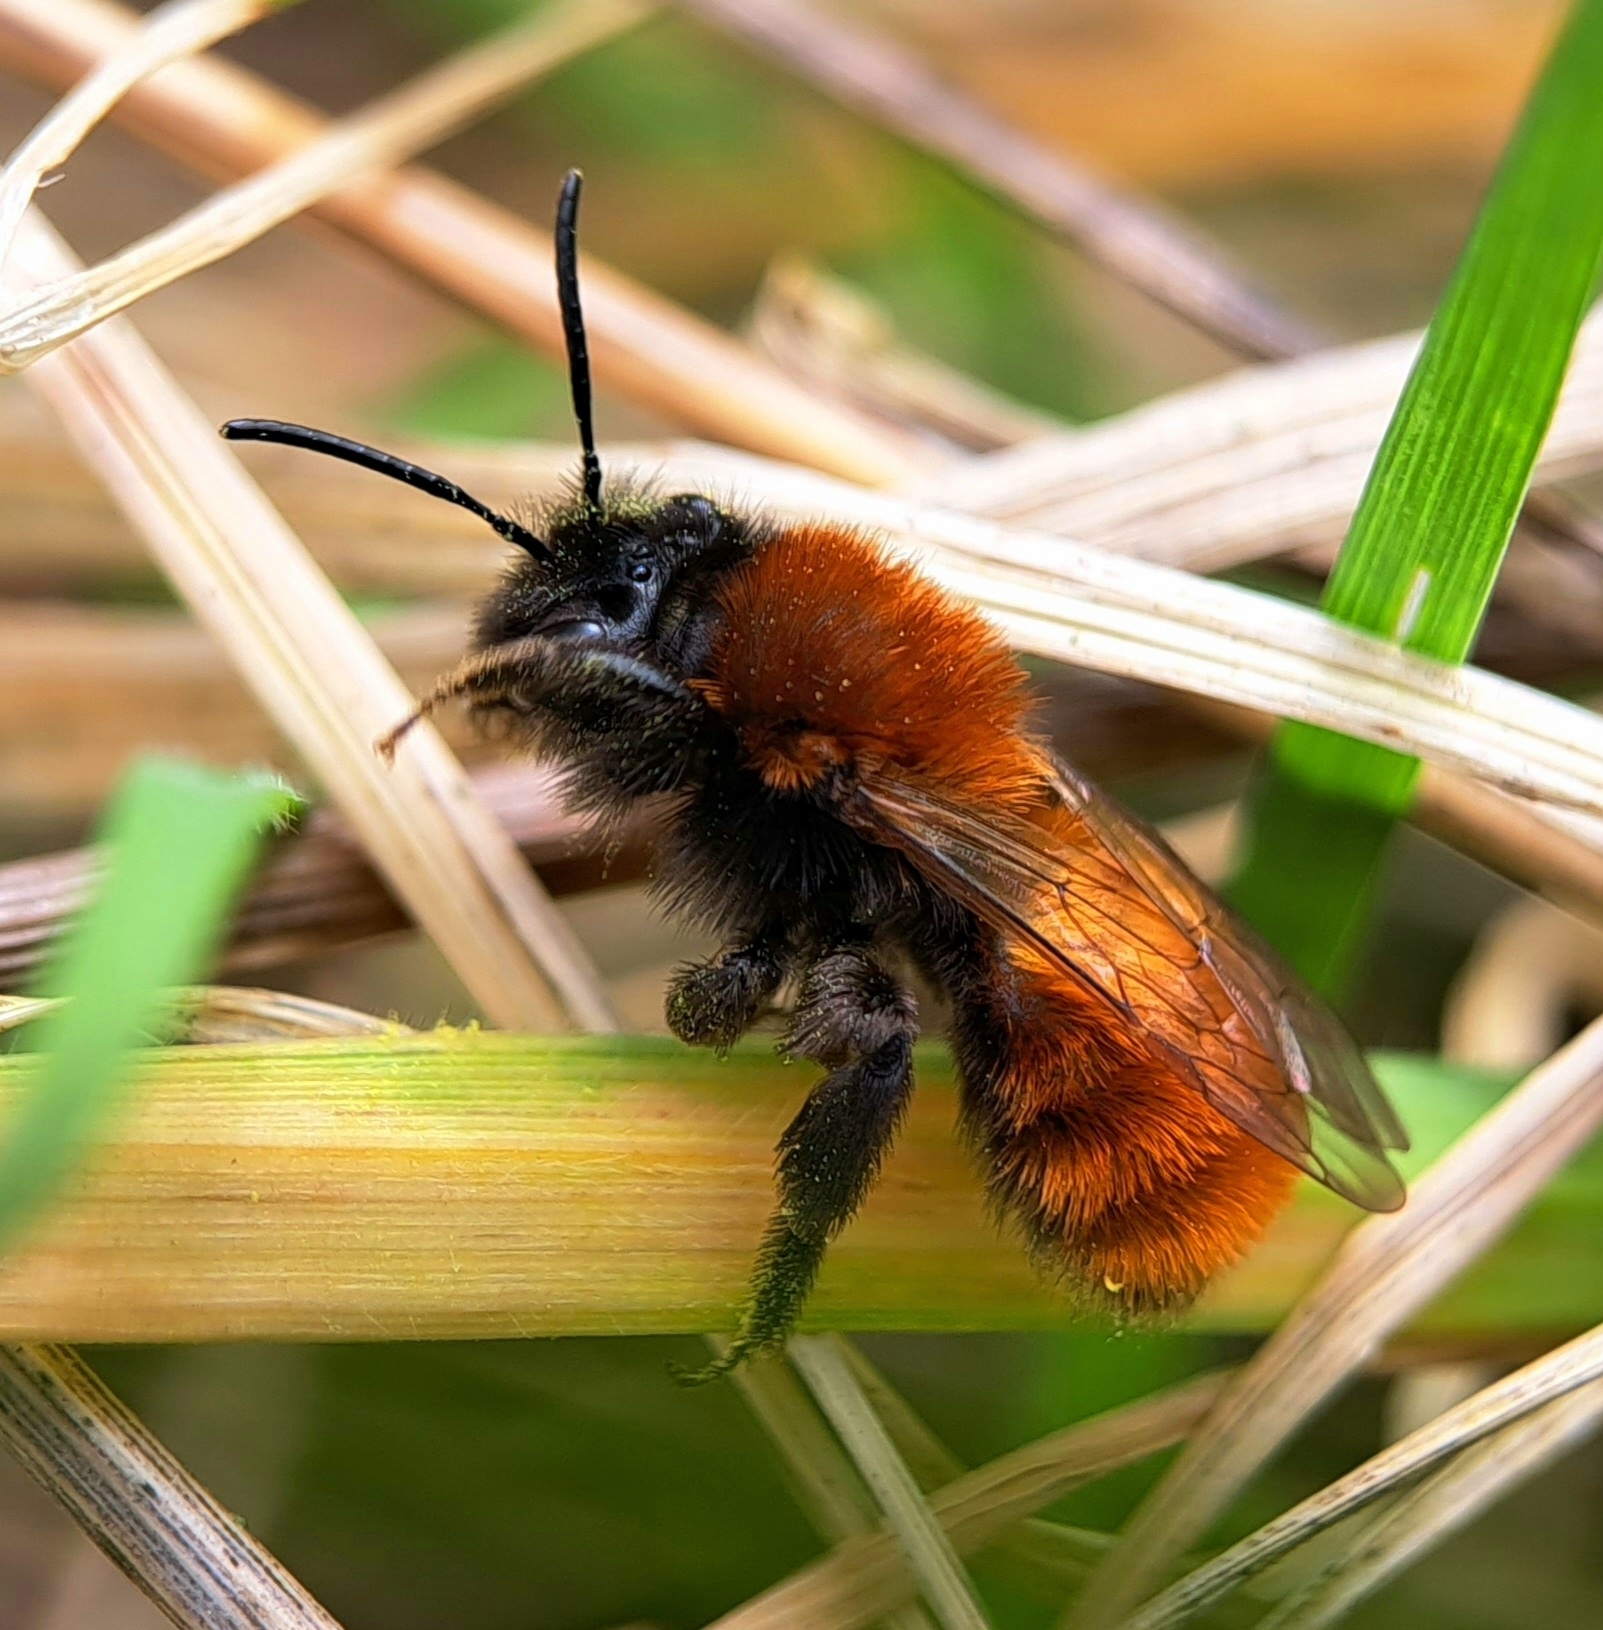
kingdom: Animalia
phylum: Arthropoda
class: Insecta
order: Hymenoptera
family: Andrenidae
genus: Andrena
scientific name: Andrena fulva
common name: Tawny mining bee
